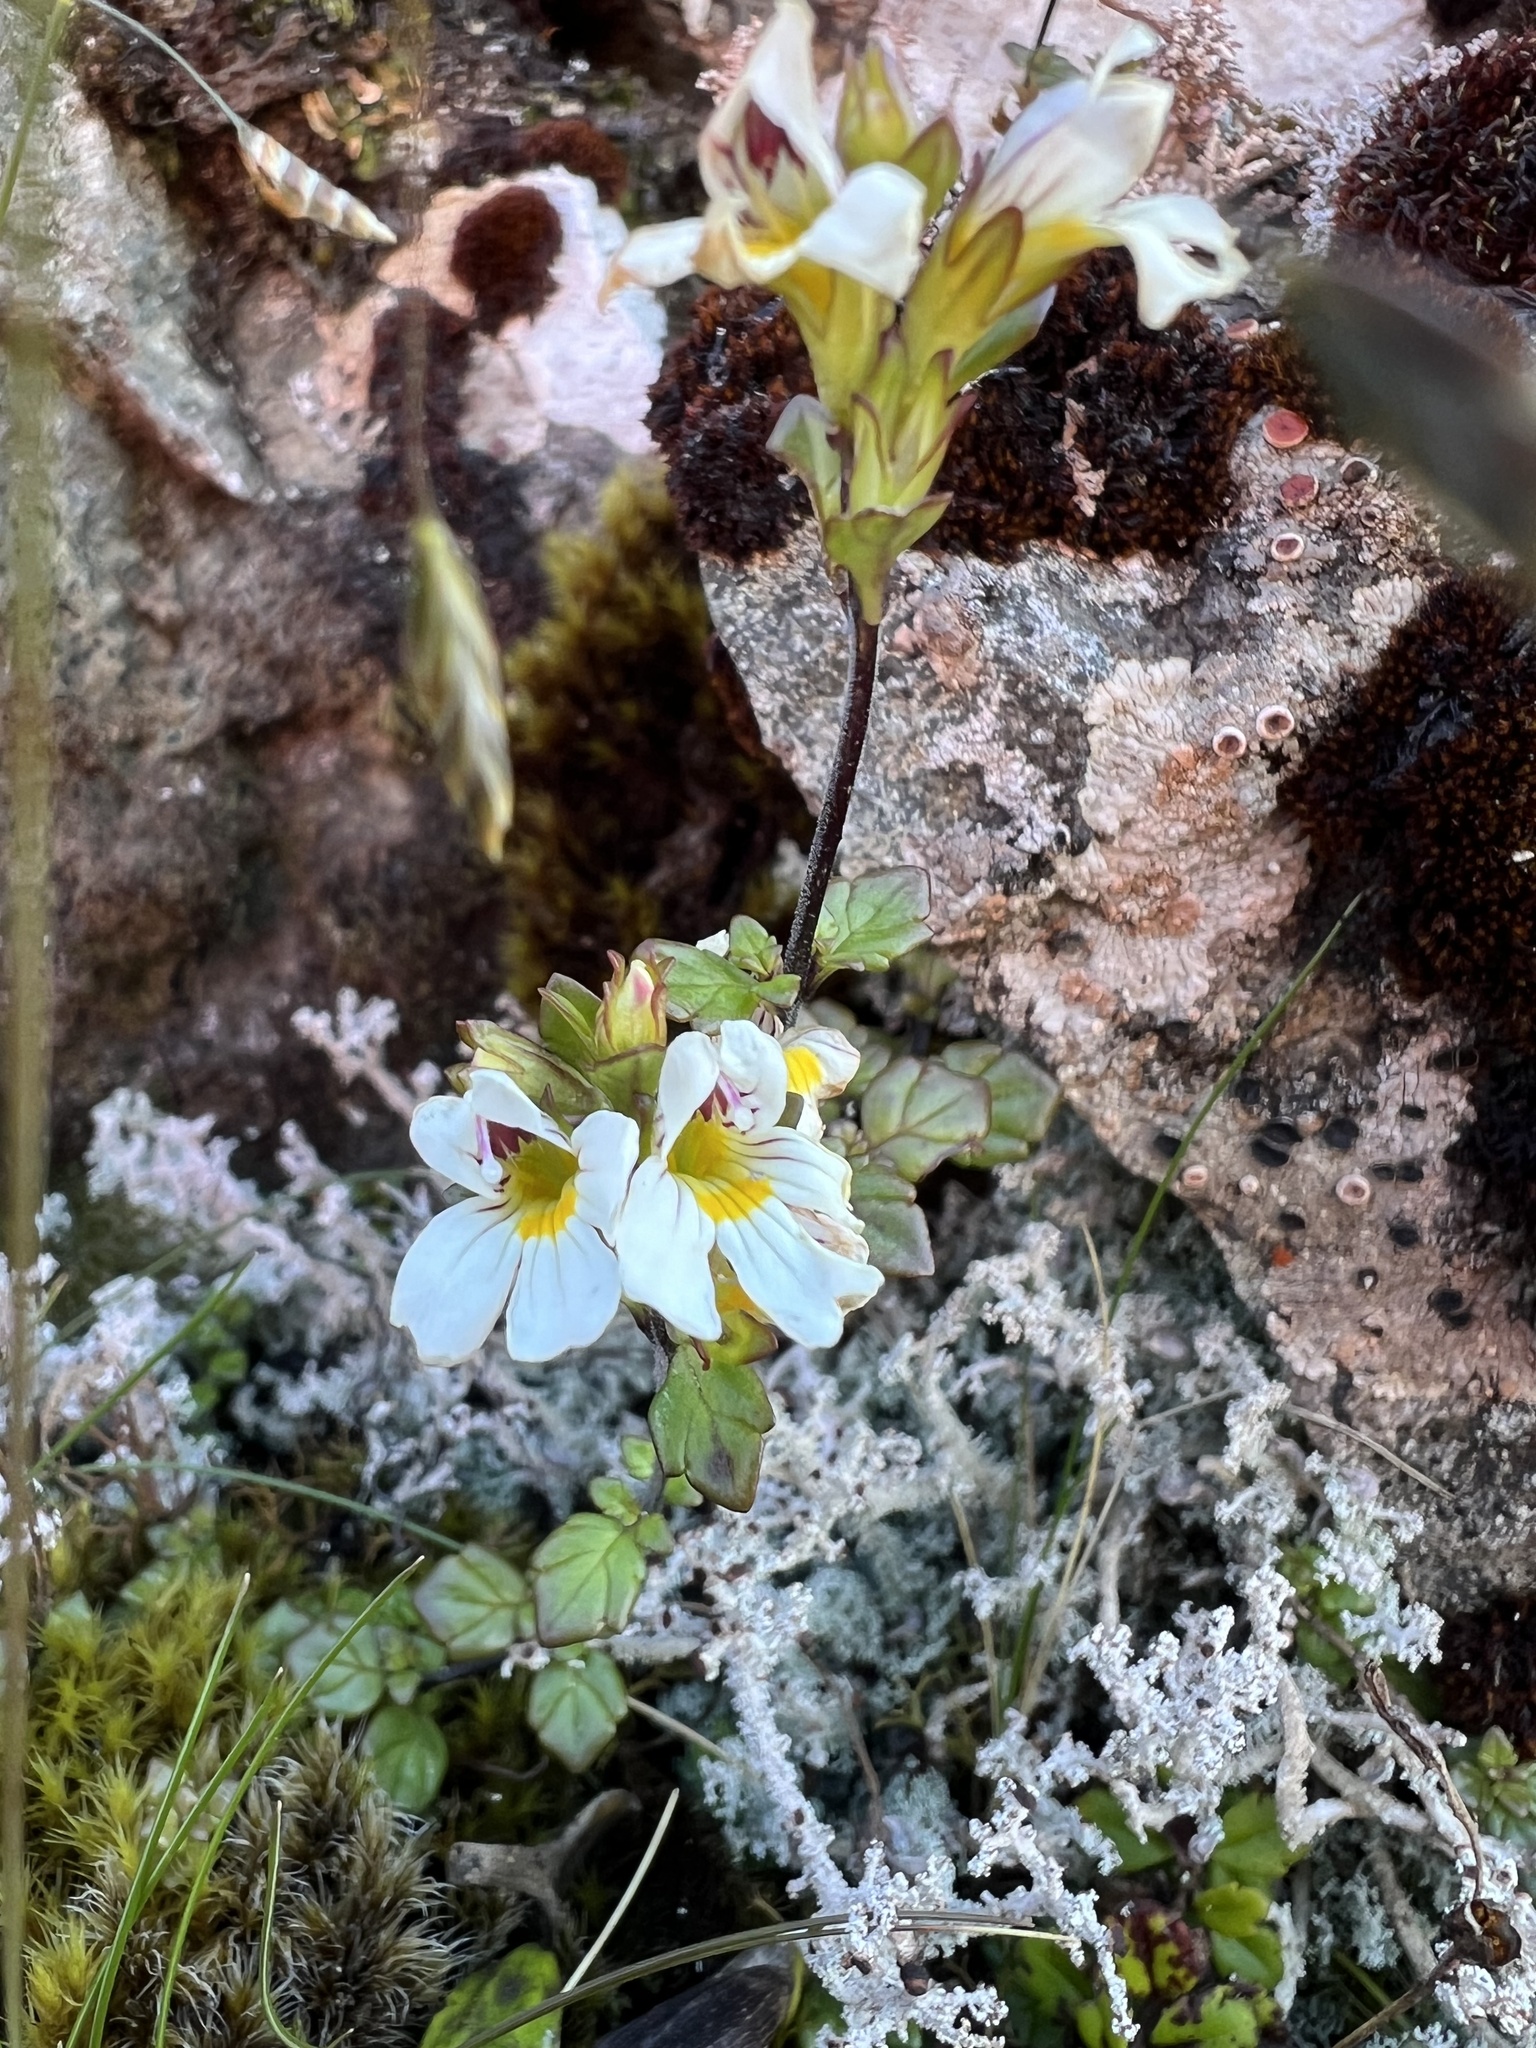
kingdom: Plantae
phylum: Tracheophyta
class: Magnoliopsida
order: Lamiales
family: Orobanchaceae
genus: Euphrasia
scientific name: Euphrasia cuneata
